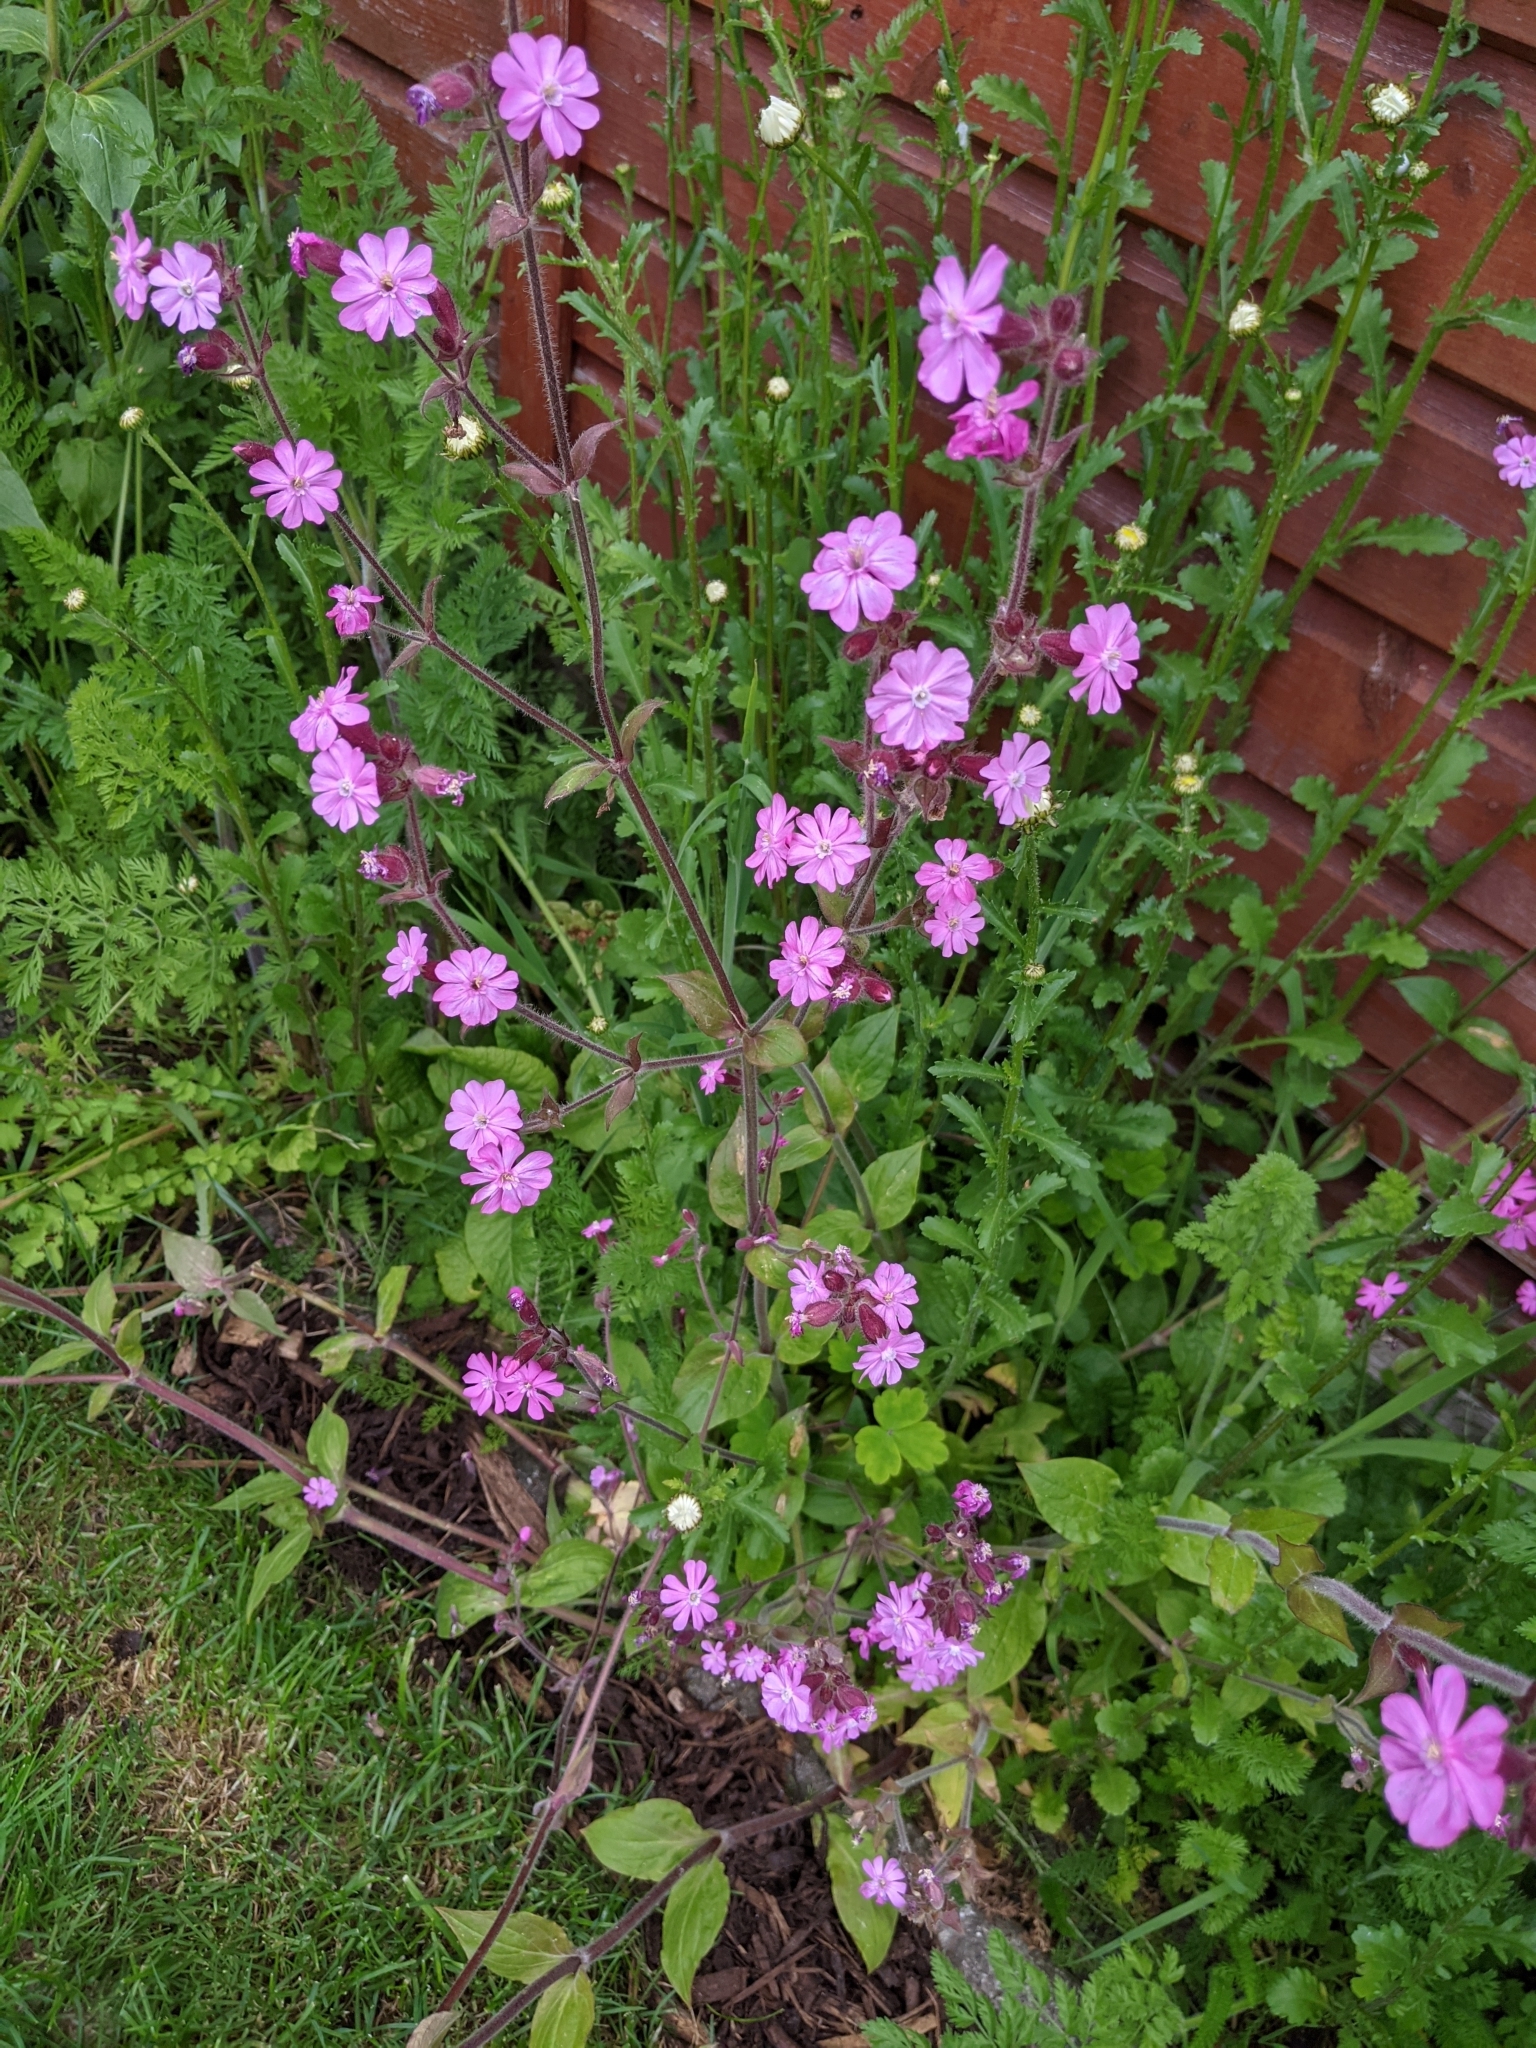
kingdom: Plantae
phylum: Tracheophyta
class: Magnoliopsida
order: Caryophyllales
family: Caryophyllaceae
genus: Silene
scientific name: Silene dioica
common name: Red campion
